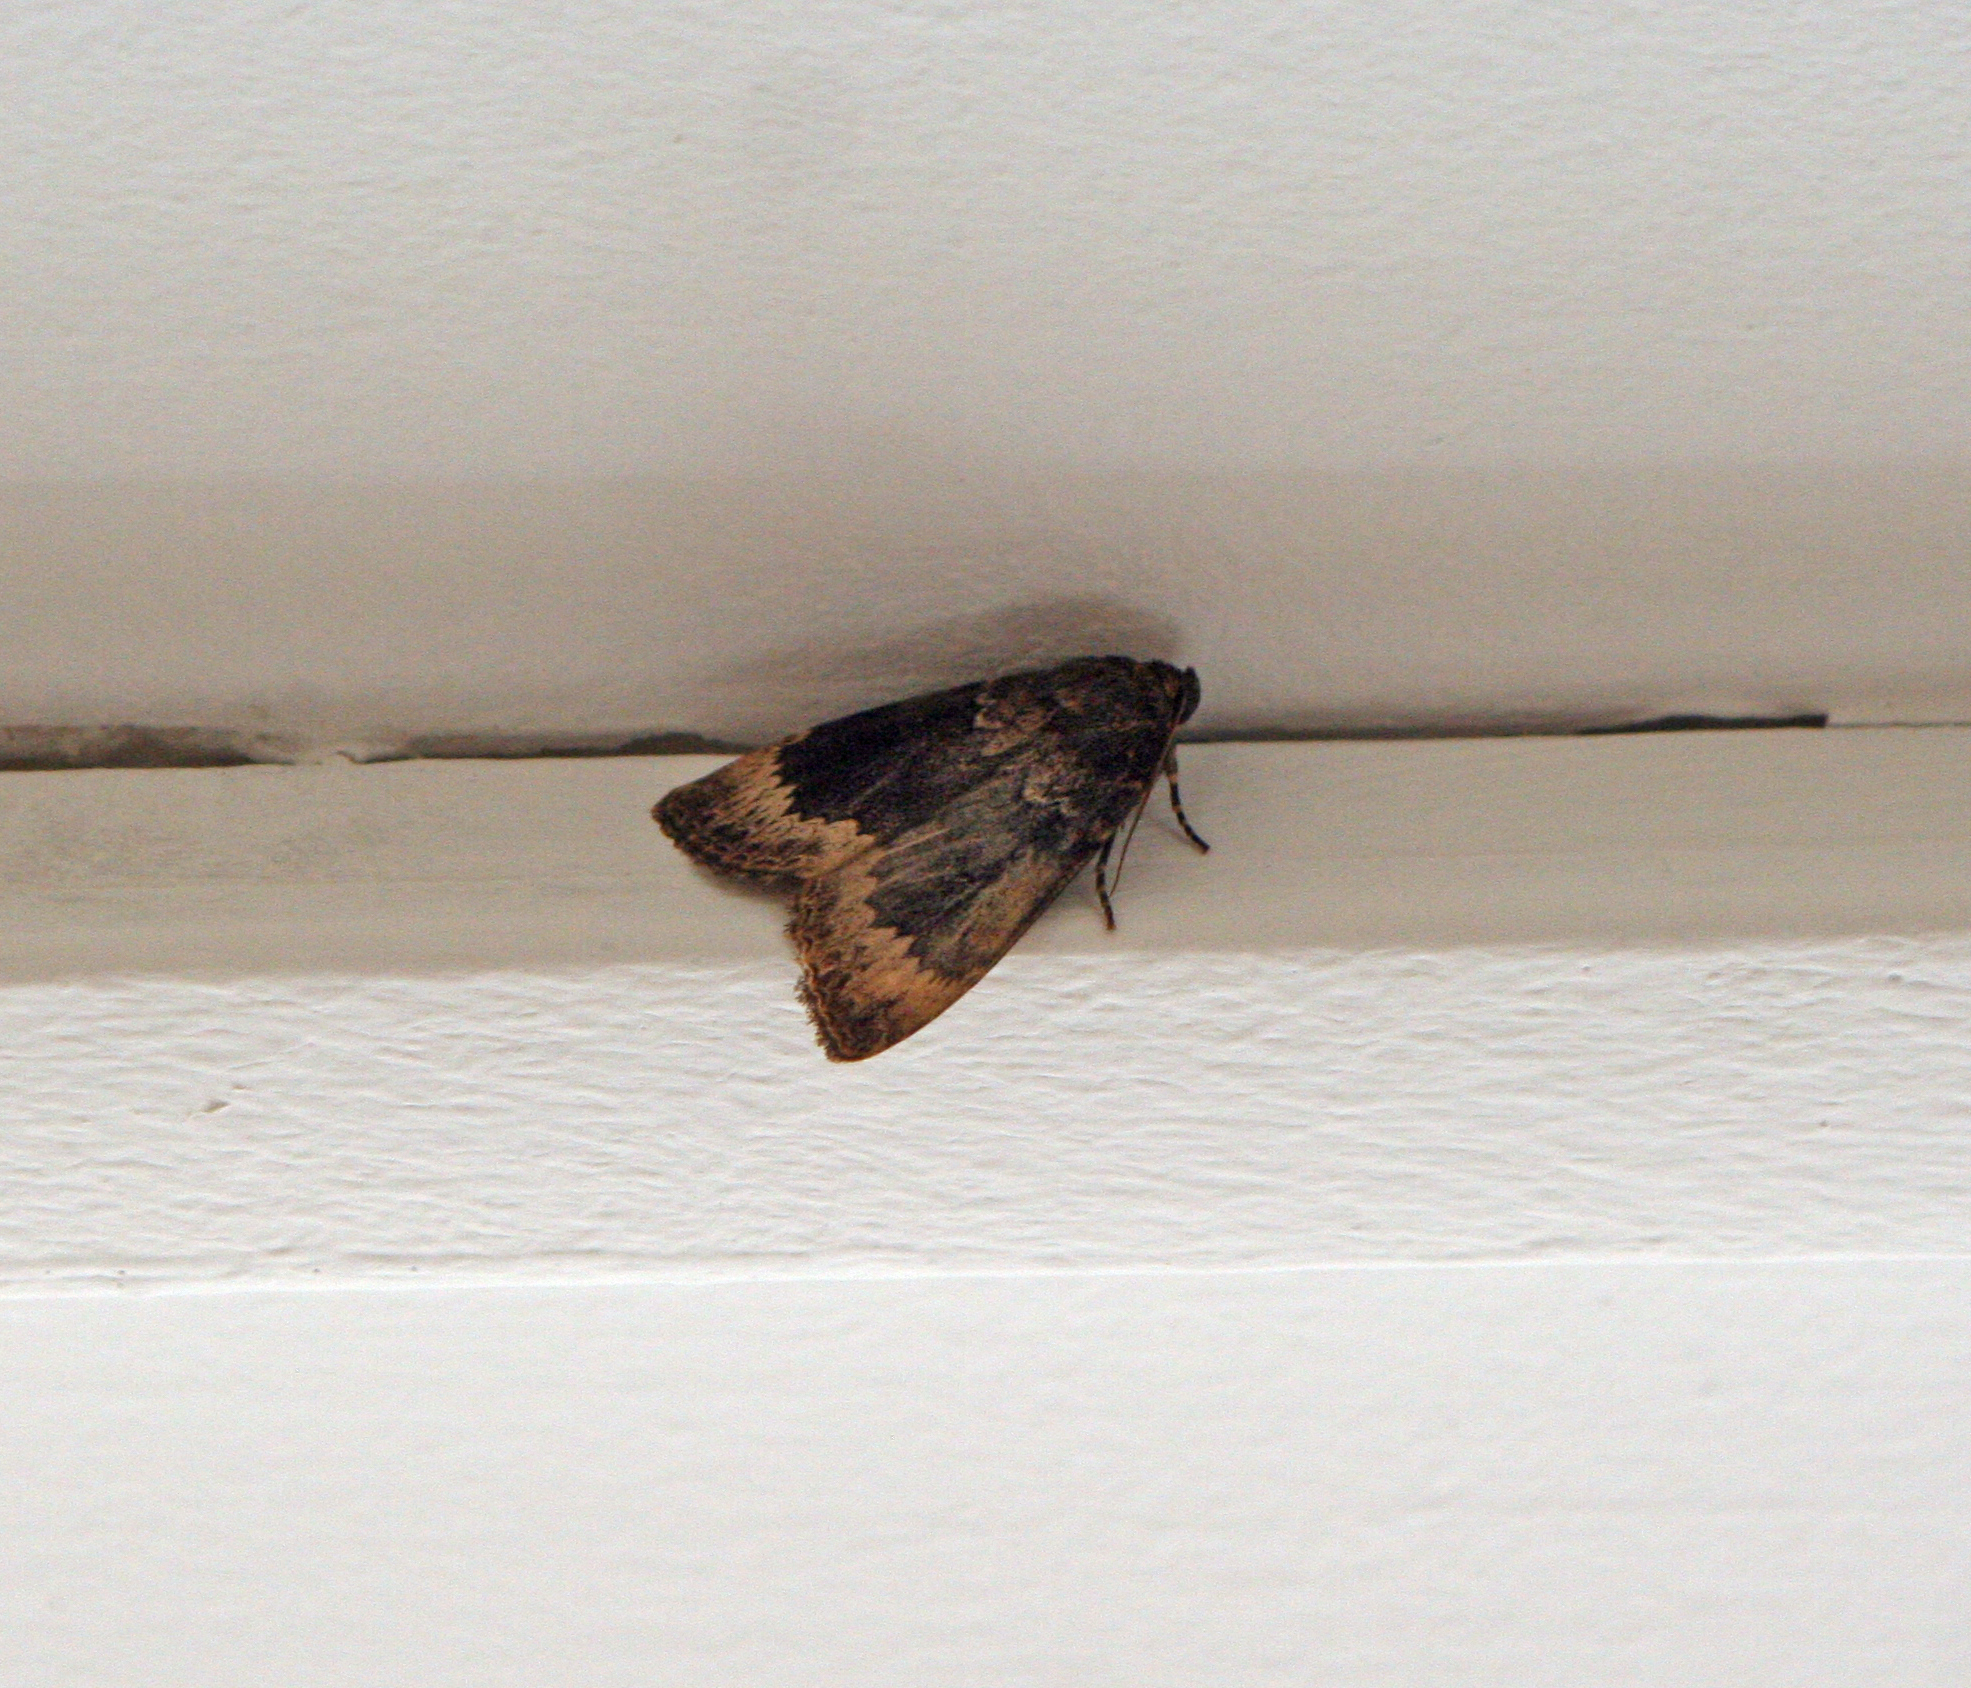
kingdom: Animalia
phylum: Arthropoda
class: Insecta
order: Lepidoptera
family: Noctuidae
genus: Amphipyra
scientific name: Amphipyra perflua
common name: Larger pale-tipped black moth
